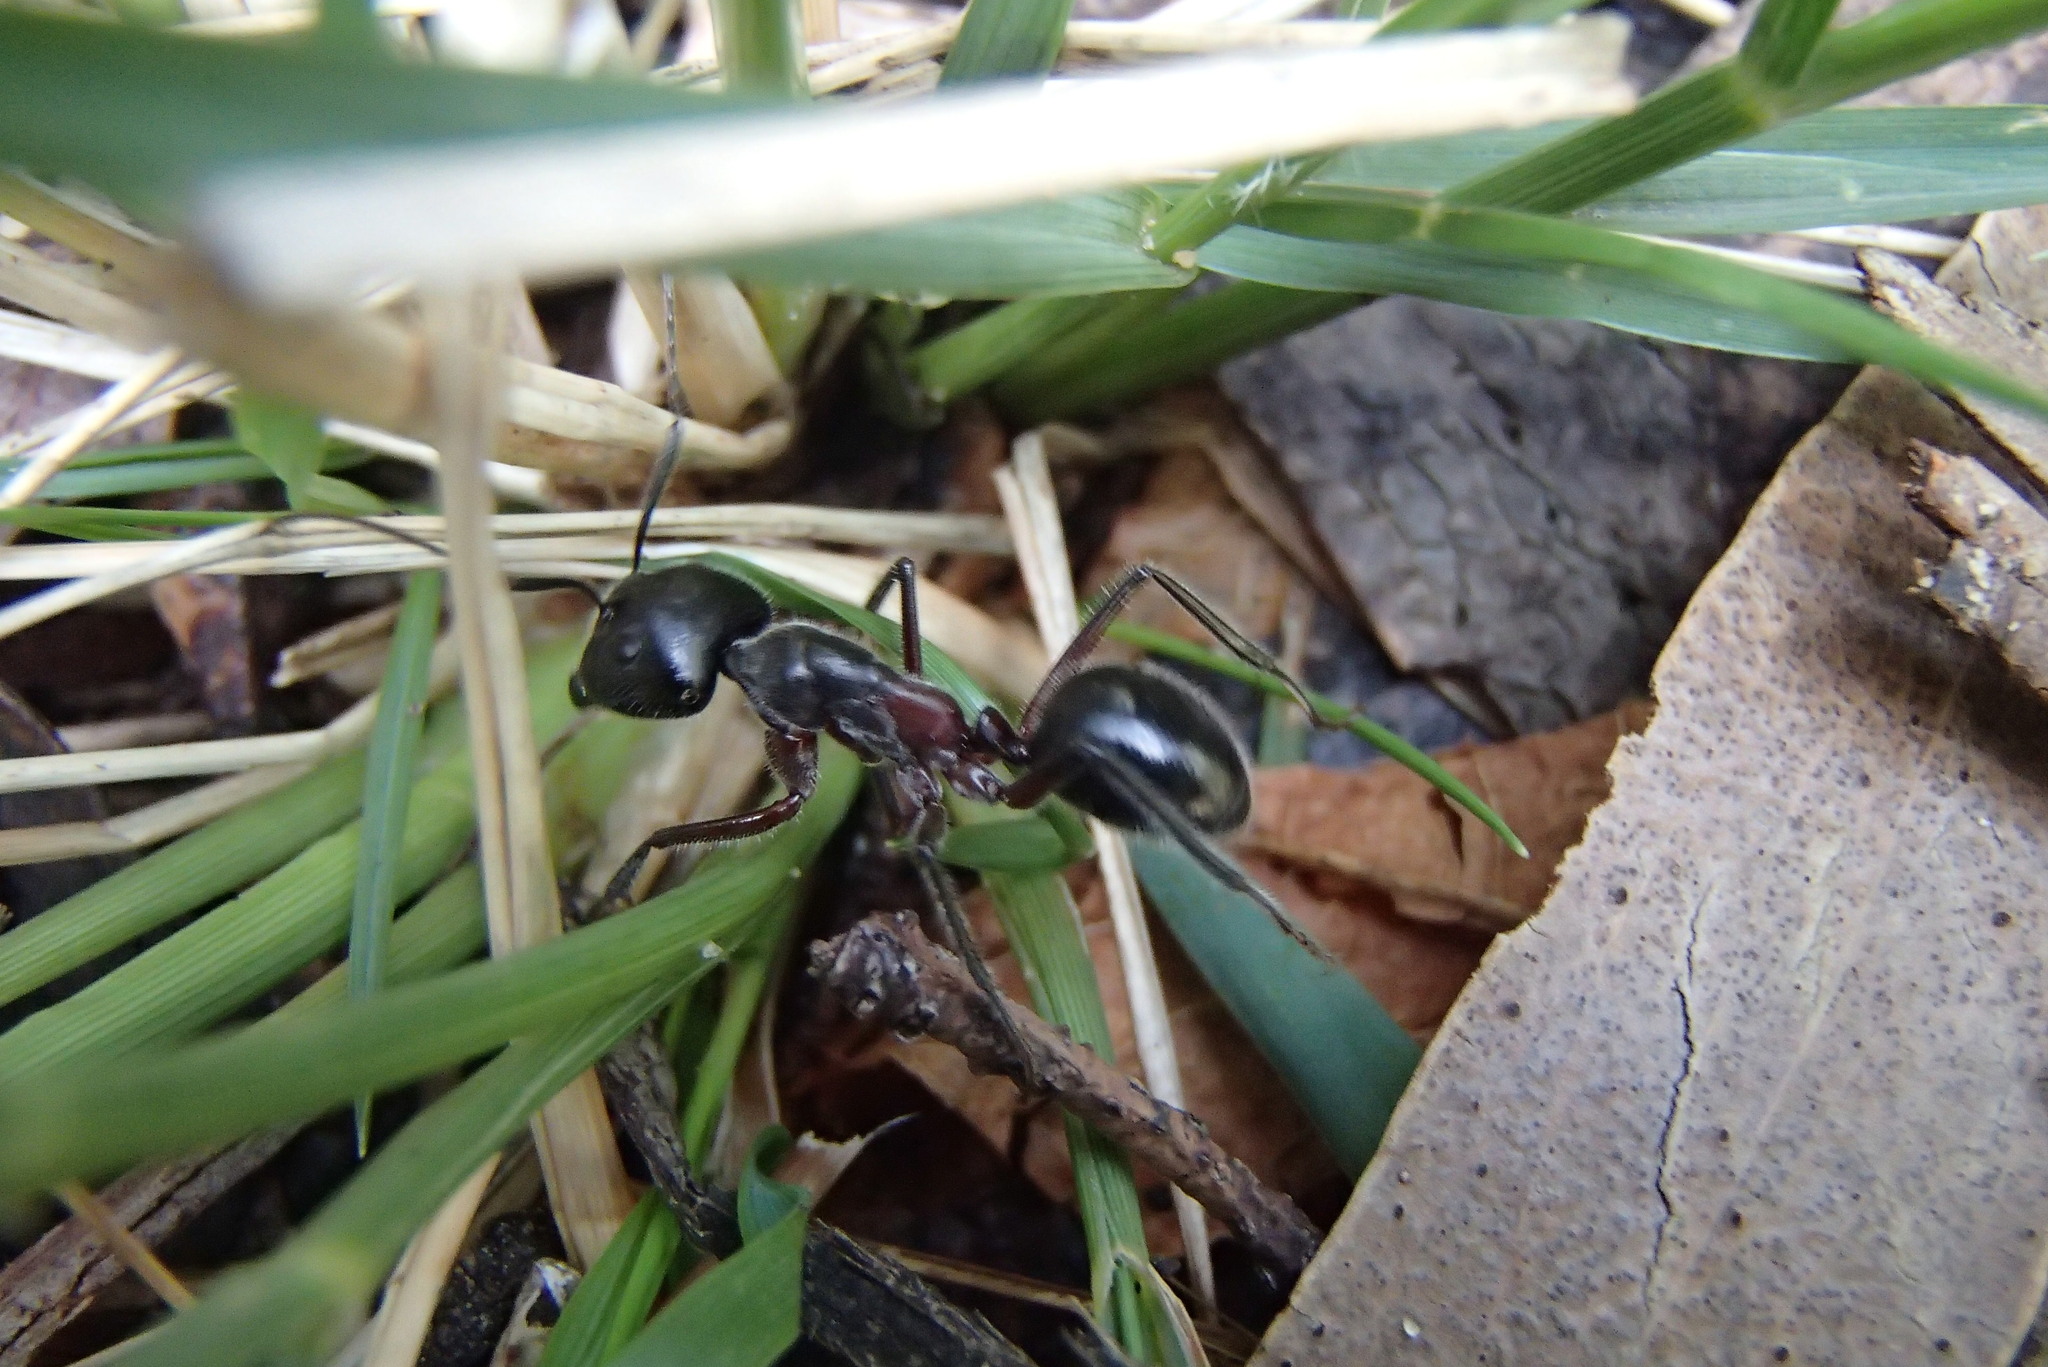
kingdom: Animalia
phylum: Arthropoda
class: Insecta
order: Hymenoptera
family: Formicidae
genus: Camponotus
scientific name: Camponotus intrepidus
